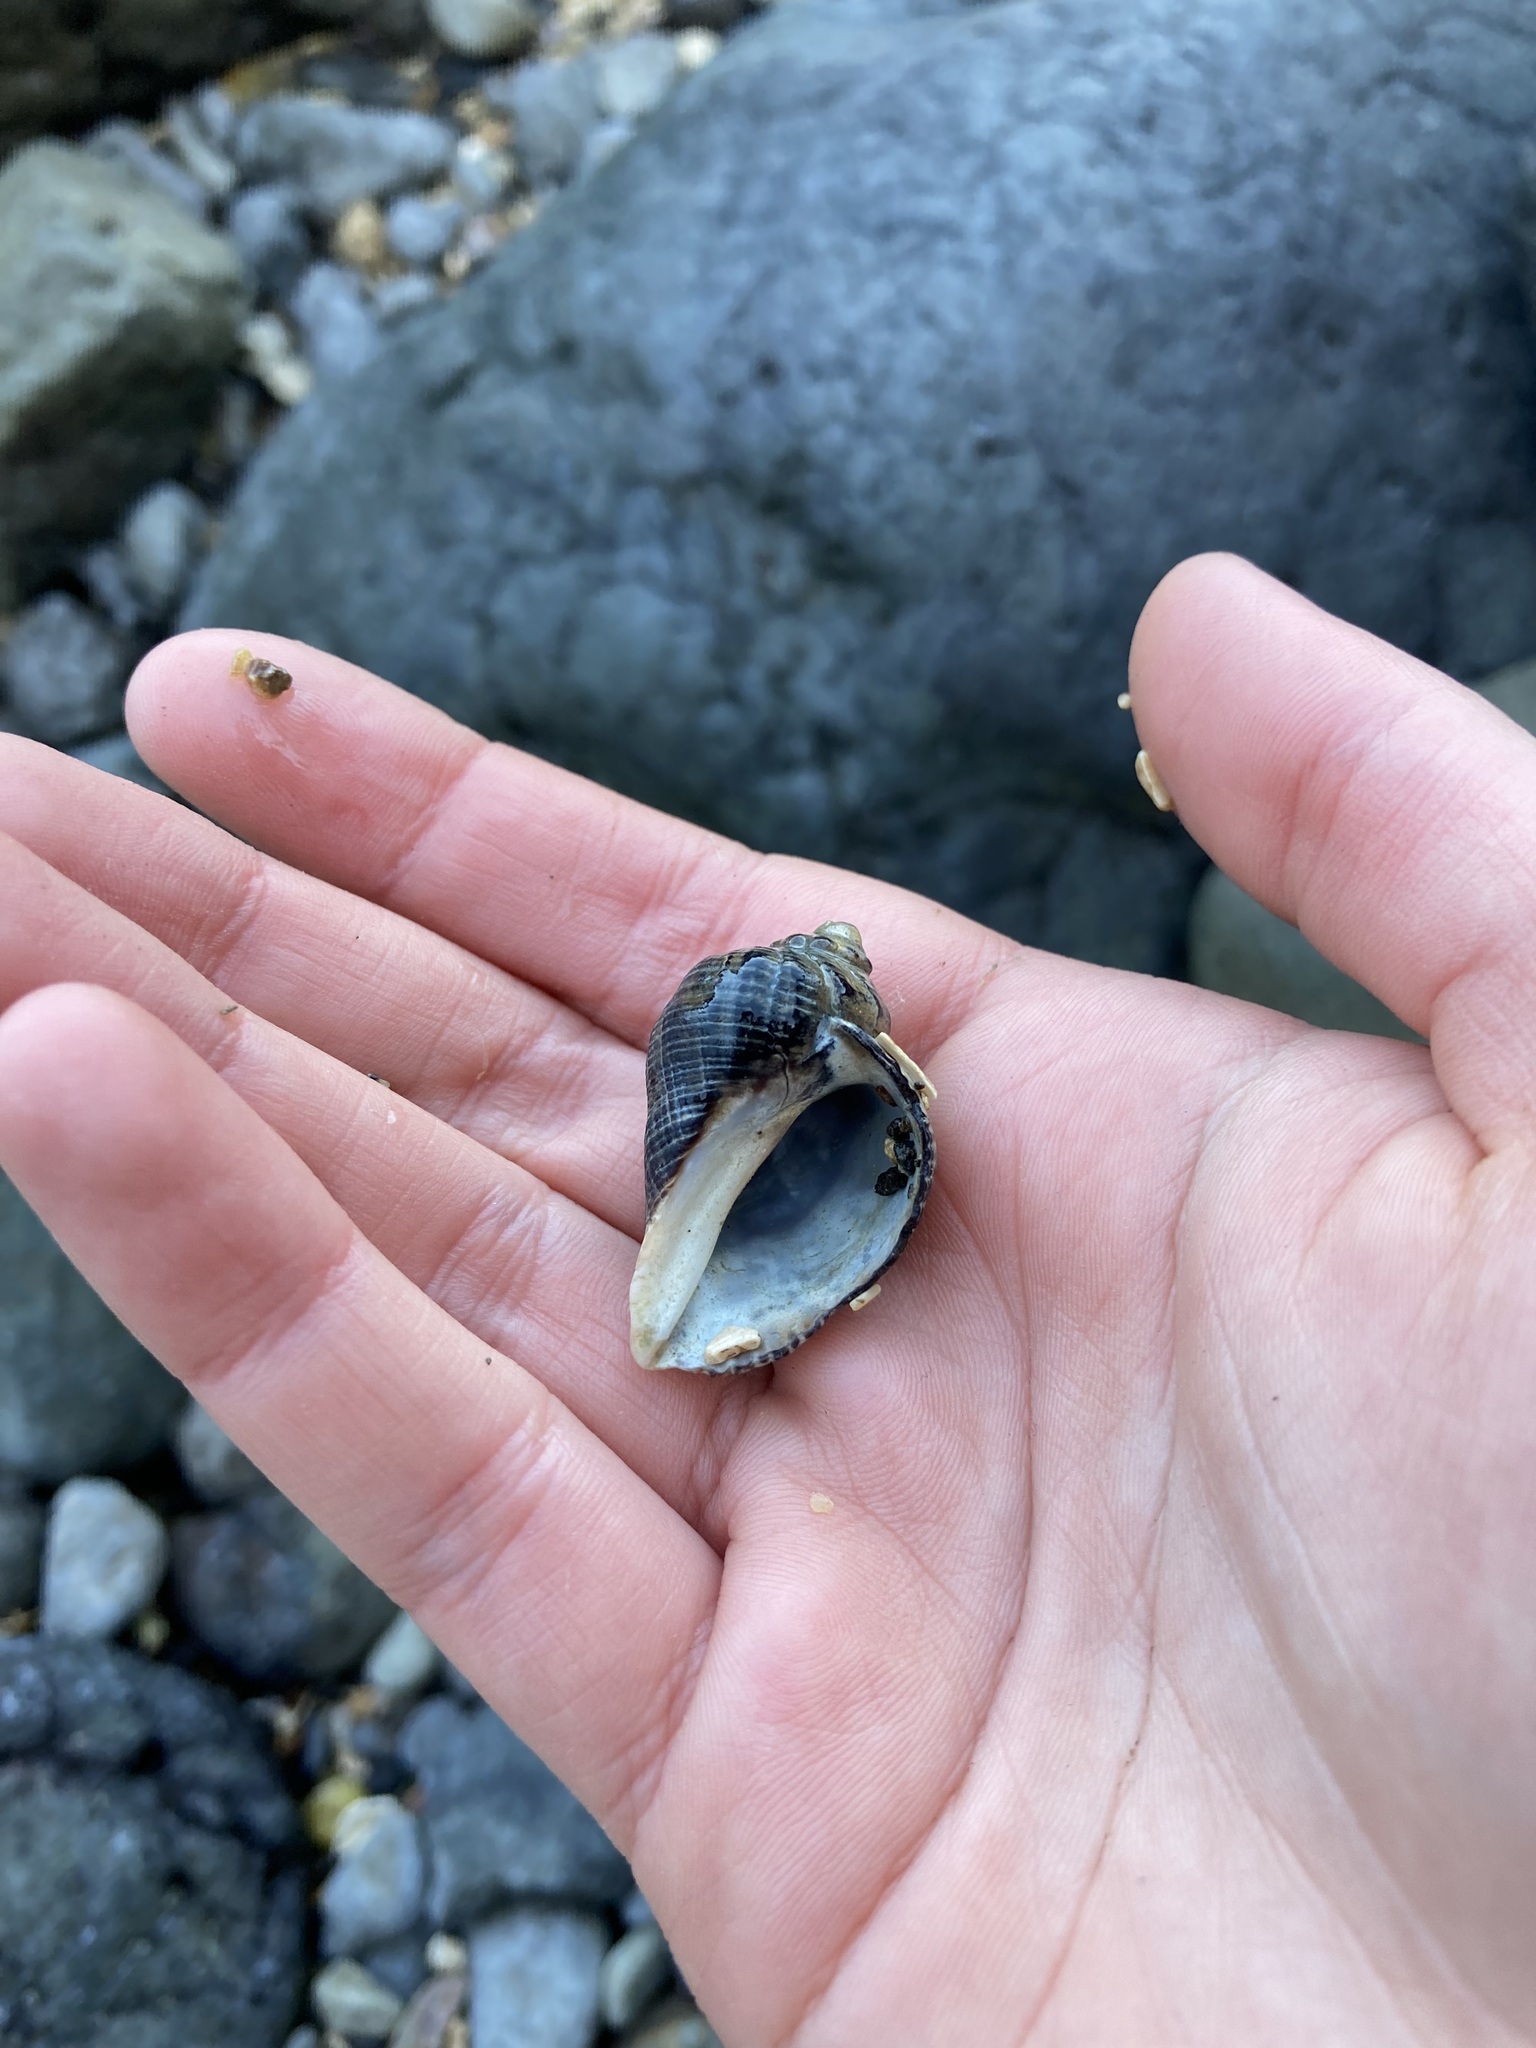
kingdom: Animalia
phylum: Mollusca
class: Gastropoda
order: Neogastropoda
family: Muricidae
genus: Haustrum
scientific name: Haustrum haustorium
